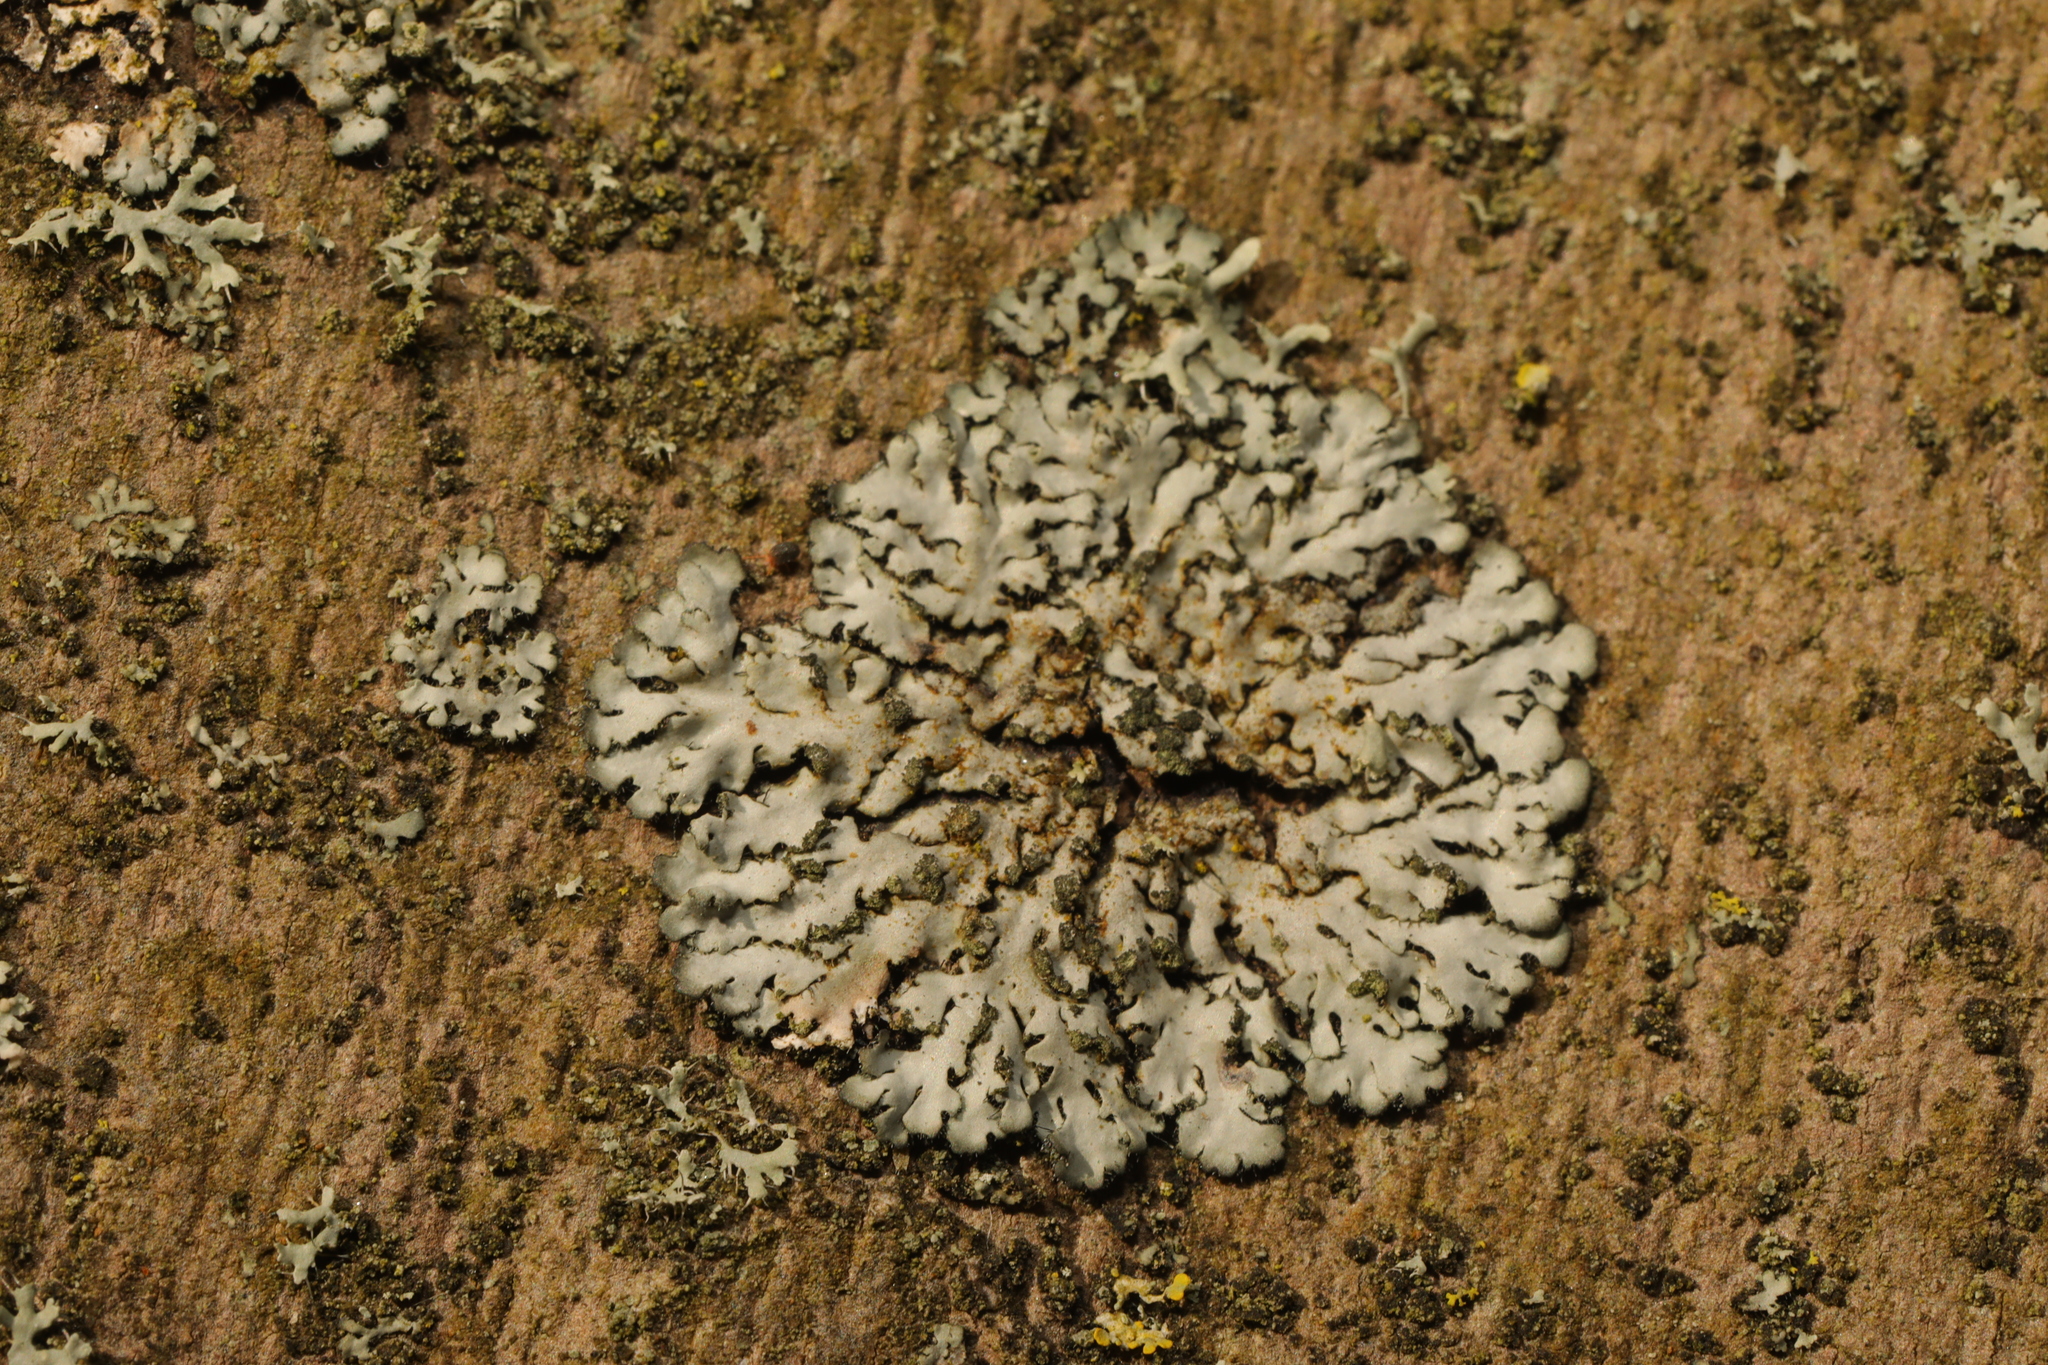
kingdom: Fungi
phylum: Ascomycota
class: Lecanoromycetes
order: Caliciales
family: Physciaceae
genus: Phaeophyscia
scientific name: Phaeophyscia orbicularis
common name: Mealy shadow lichen
